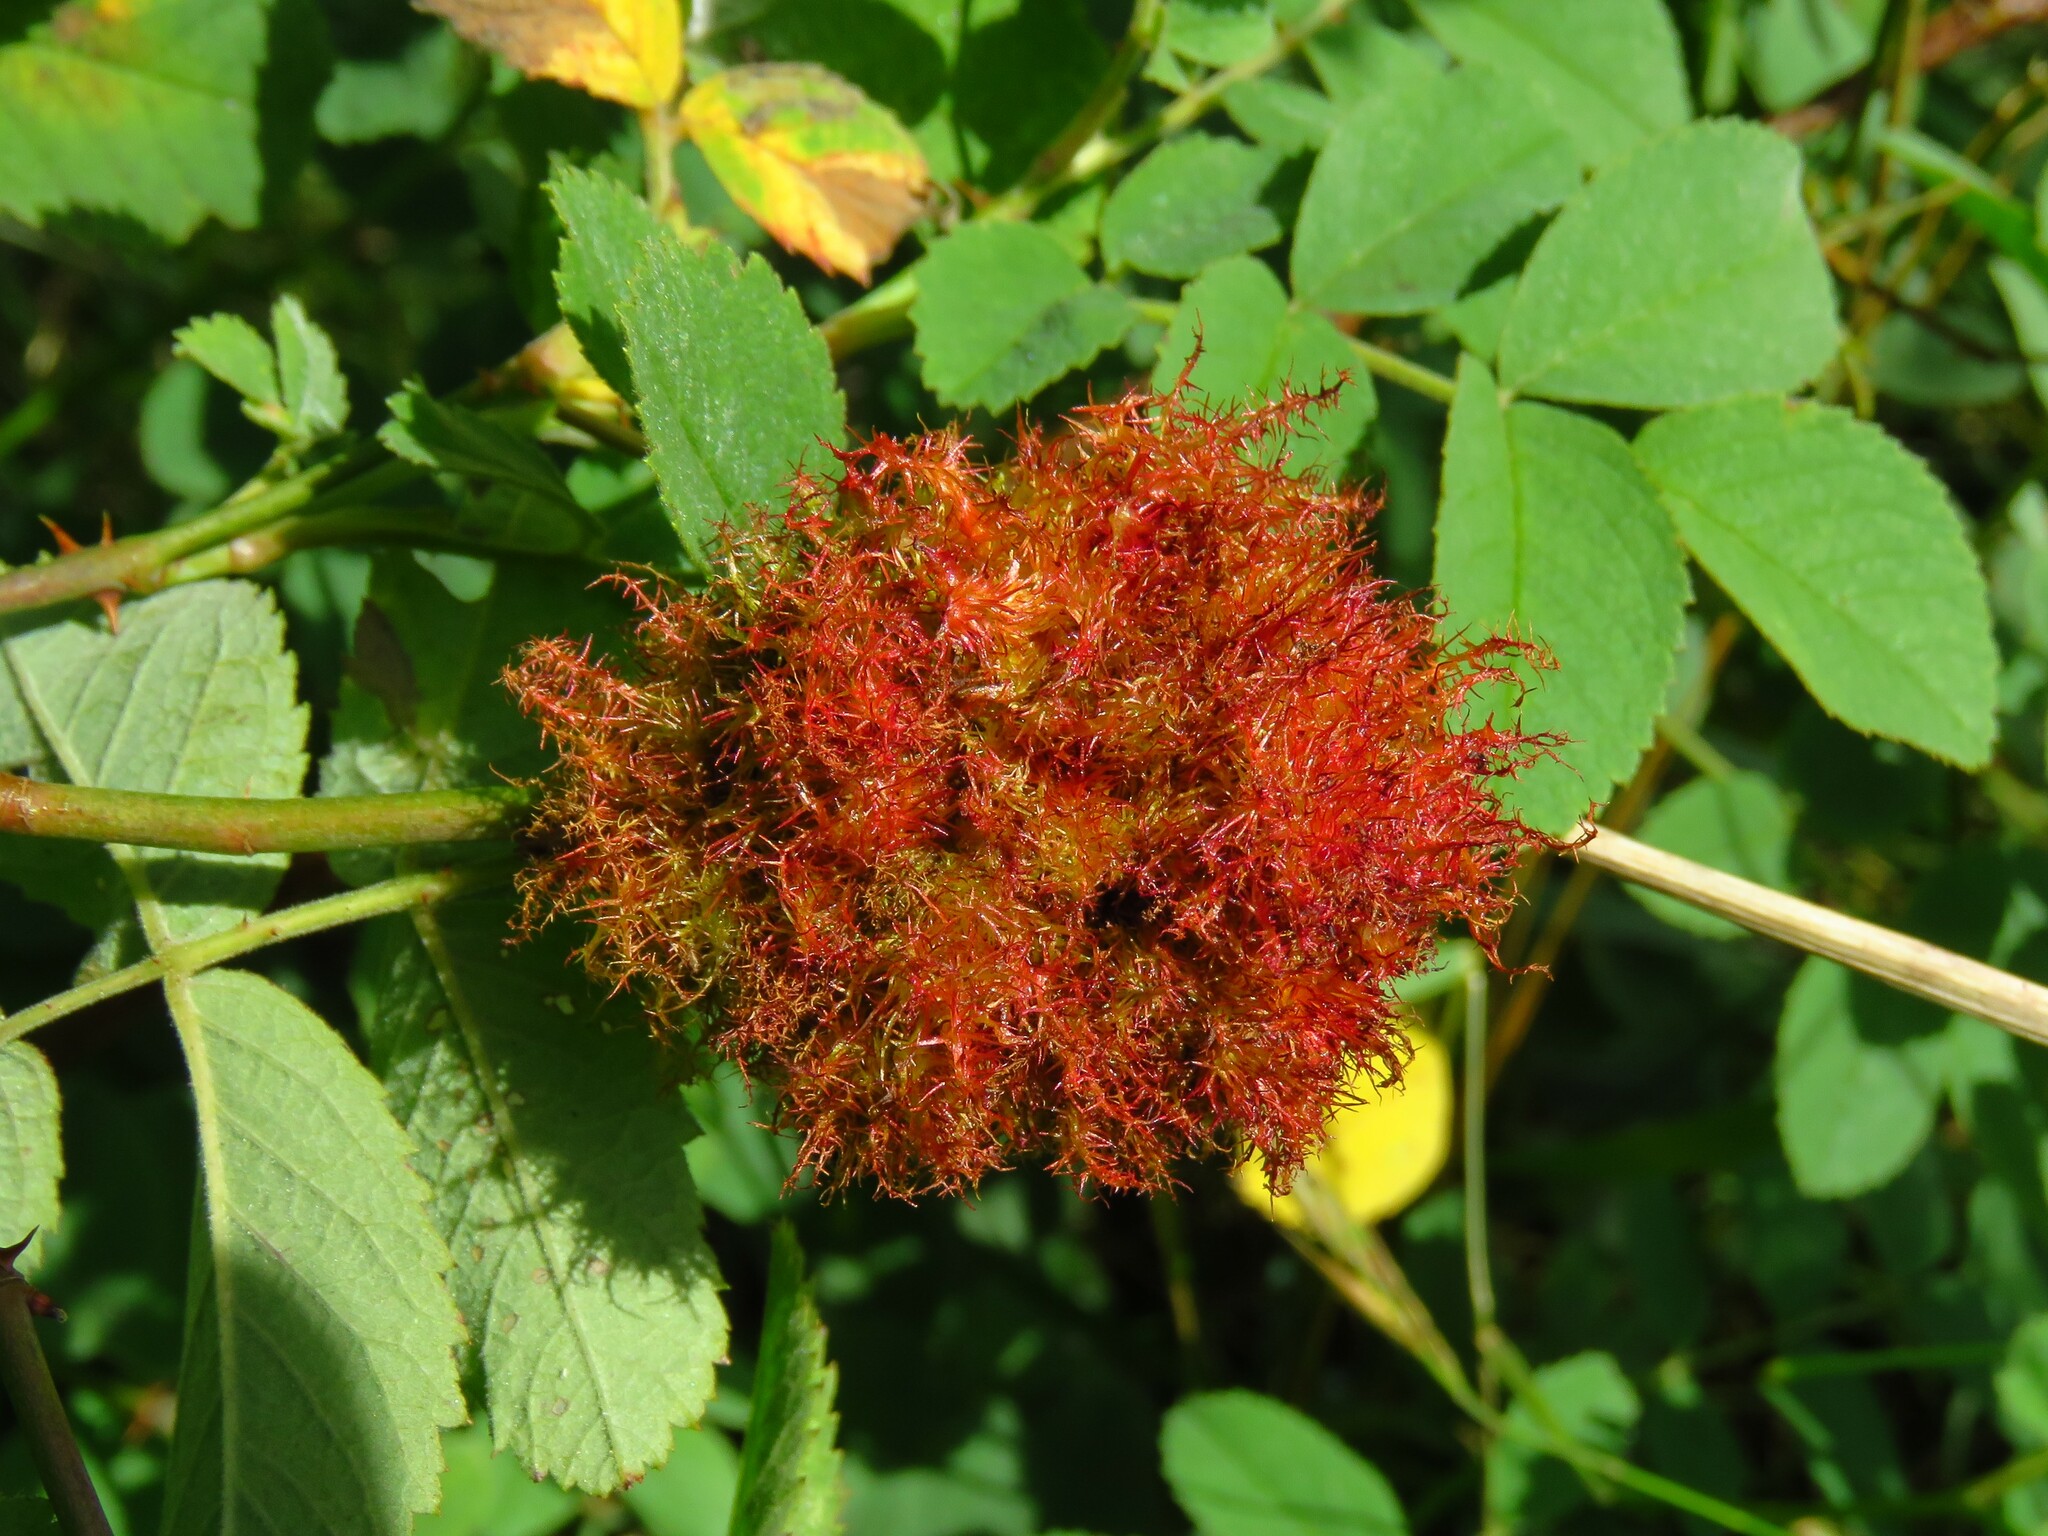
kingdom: Animalia
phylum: Arthropoda
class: Insecta
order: Hymenoptera
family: Cynipidae
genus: Diplolepis
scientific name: Diplolepis rosae
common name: Bedeguar gall
